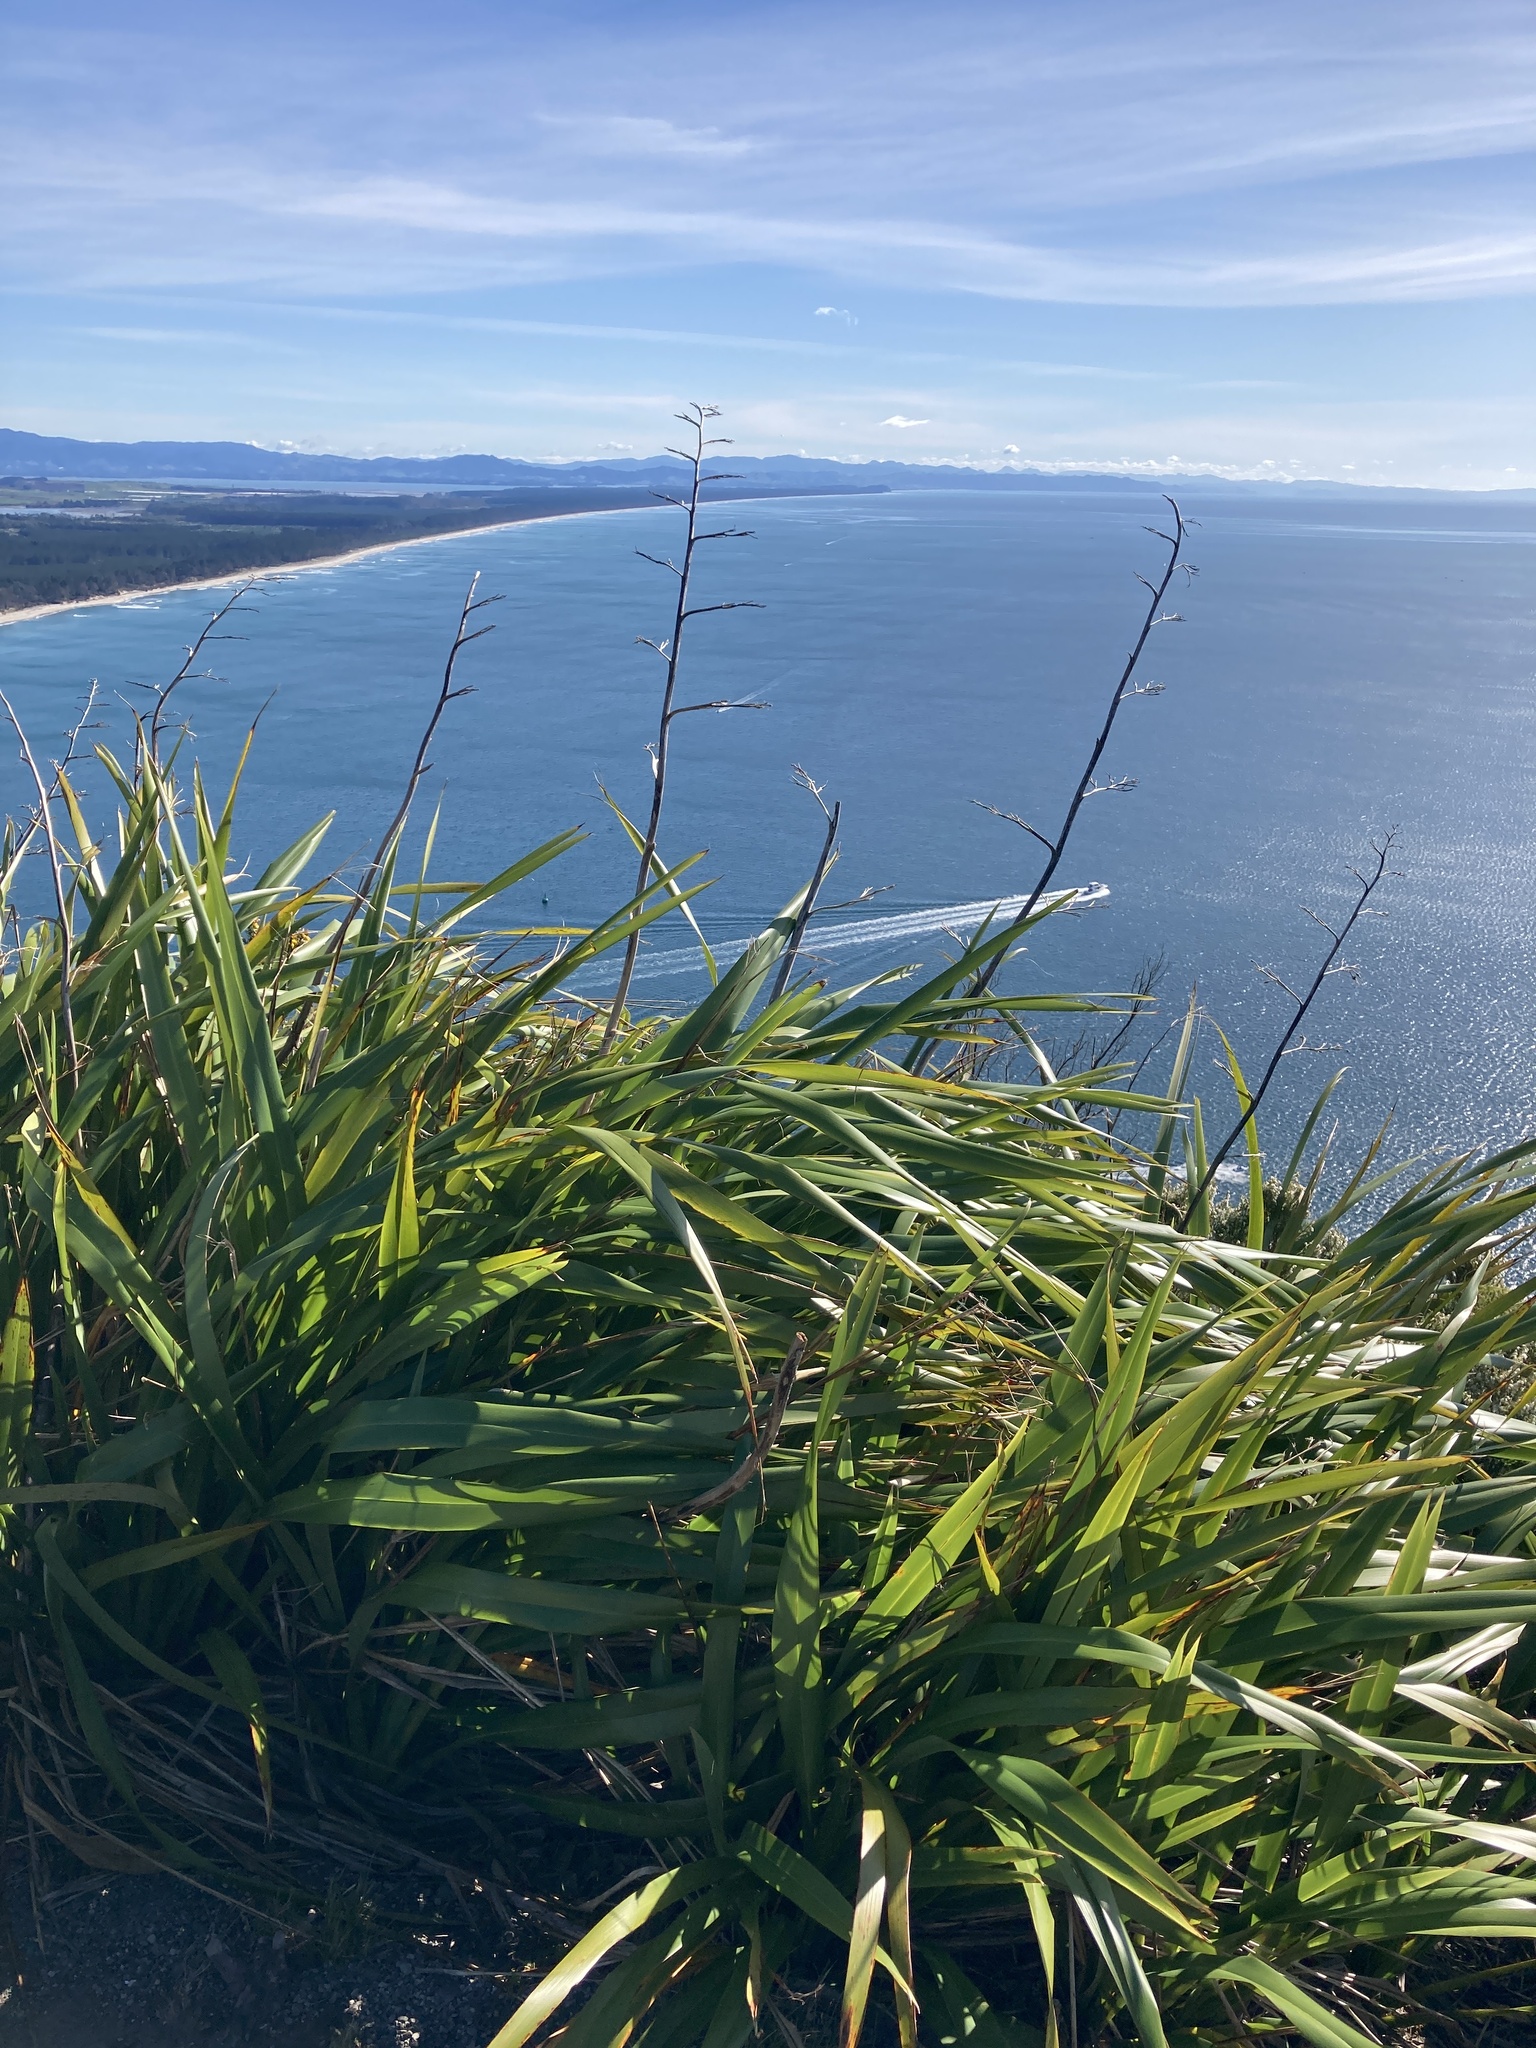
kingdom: Plantae
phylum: Tracheophyta
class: Liliopsida
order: Asparagales
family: Asphodelaceae
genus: Phormium
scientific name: Phormium colensoi
